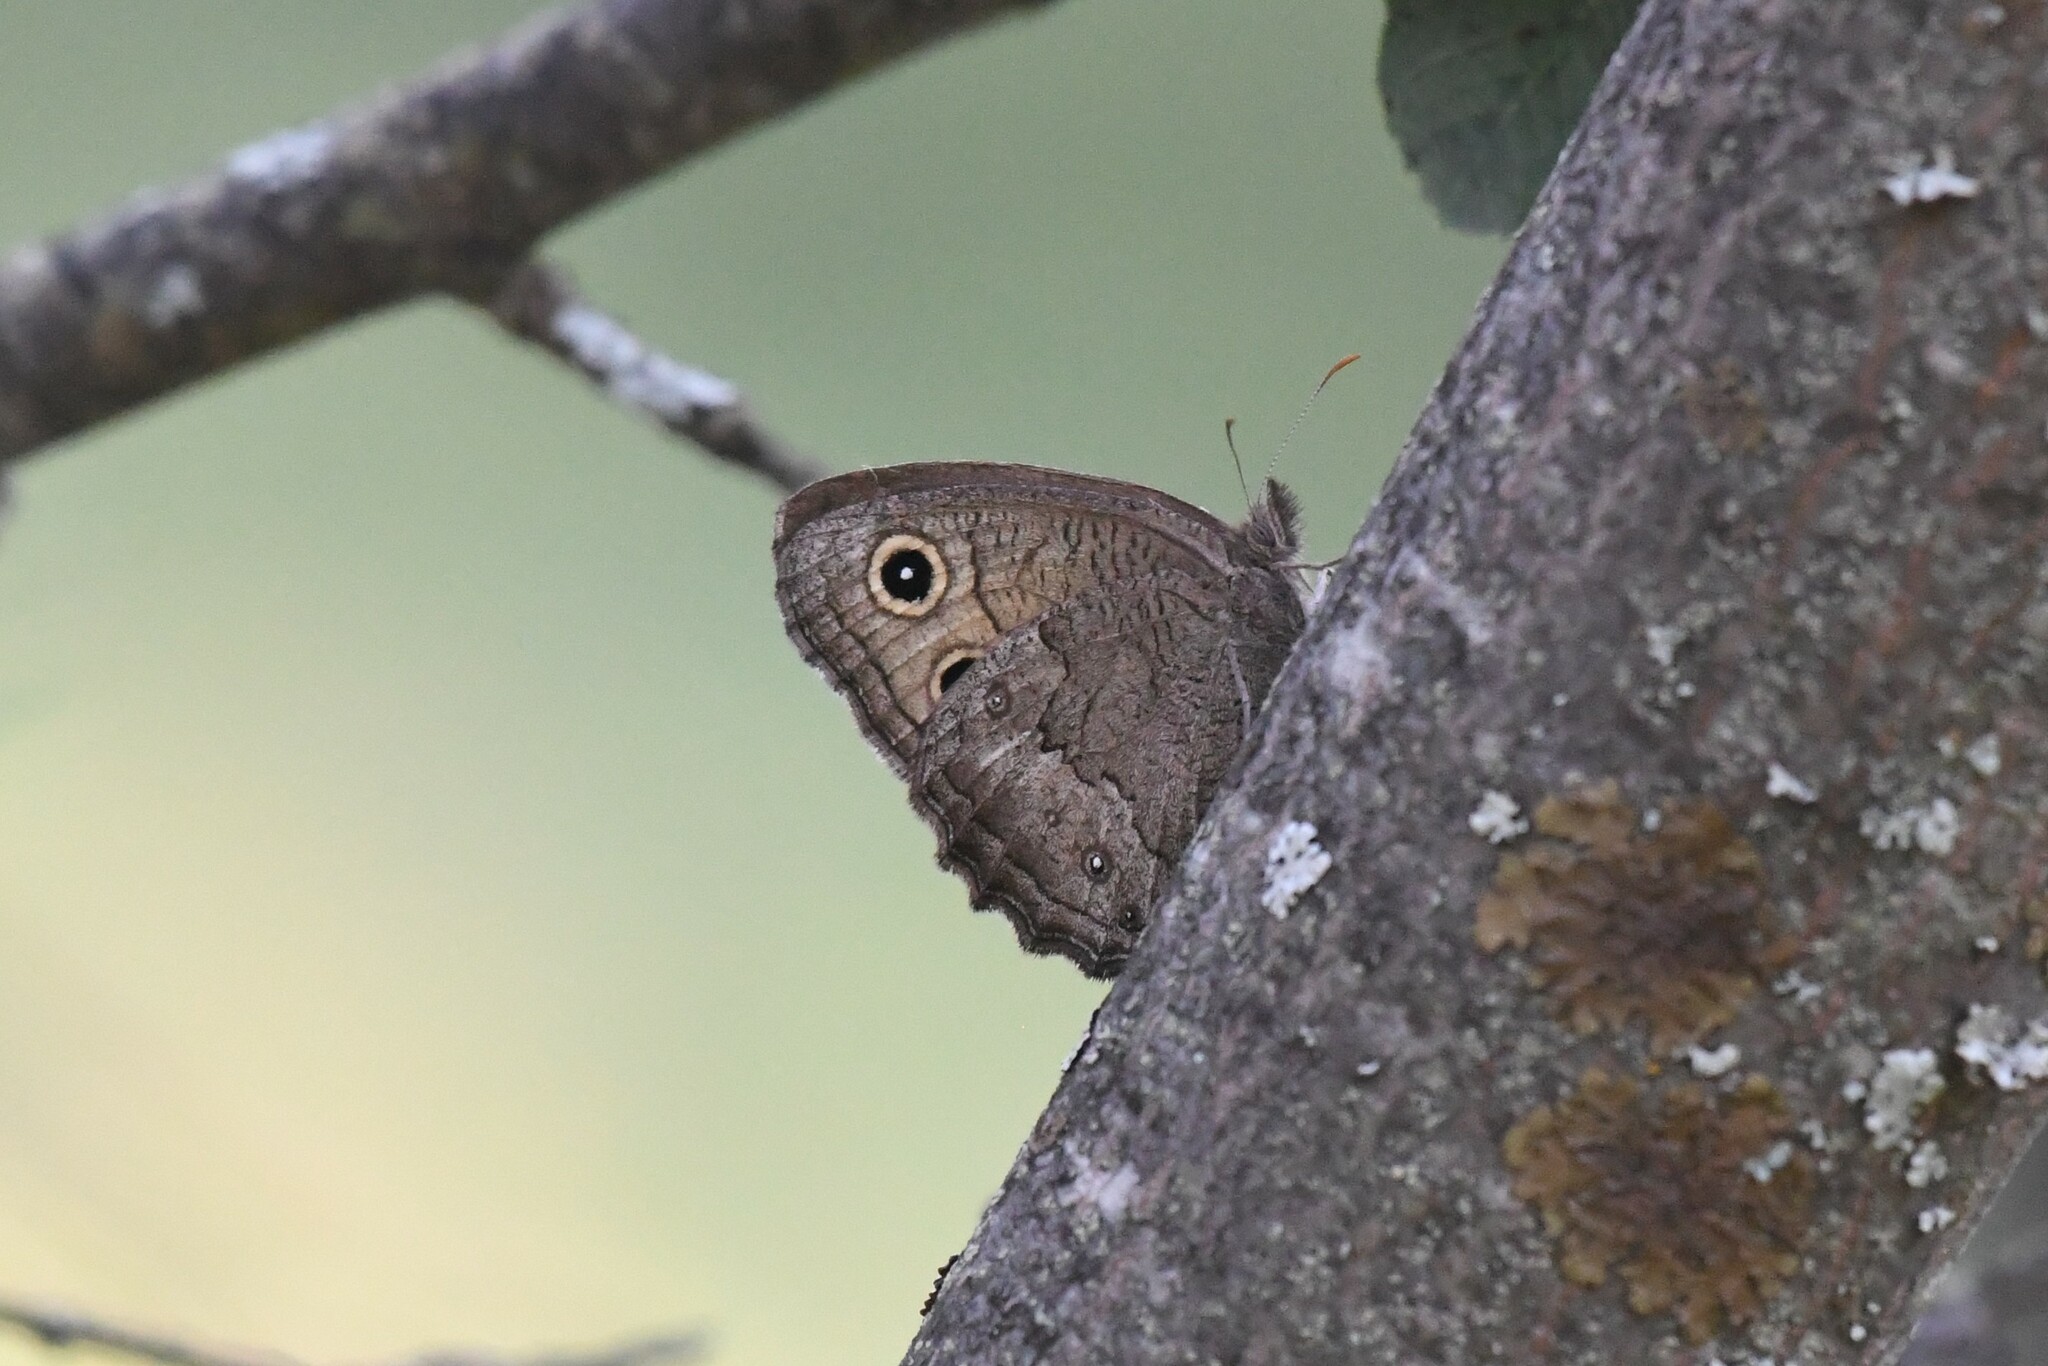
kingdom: Animalia
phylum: Arthropoda
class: Insecta
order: Lepidoptera
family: Nymphalidae
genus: Cercyonis
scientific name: Cercyonis sthenele
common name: Great basin wood-nymph
